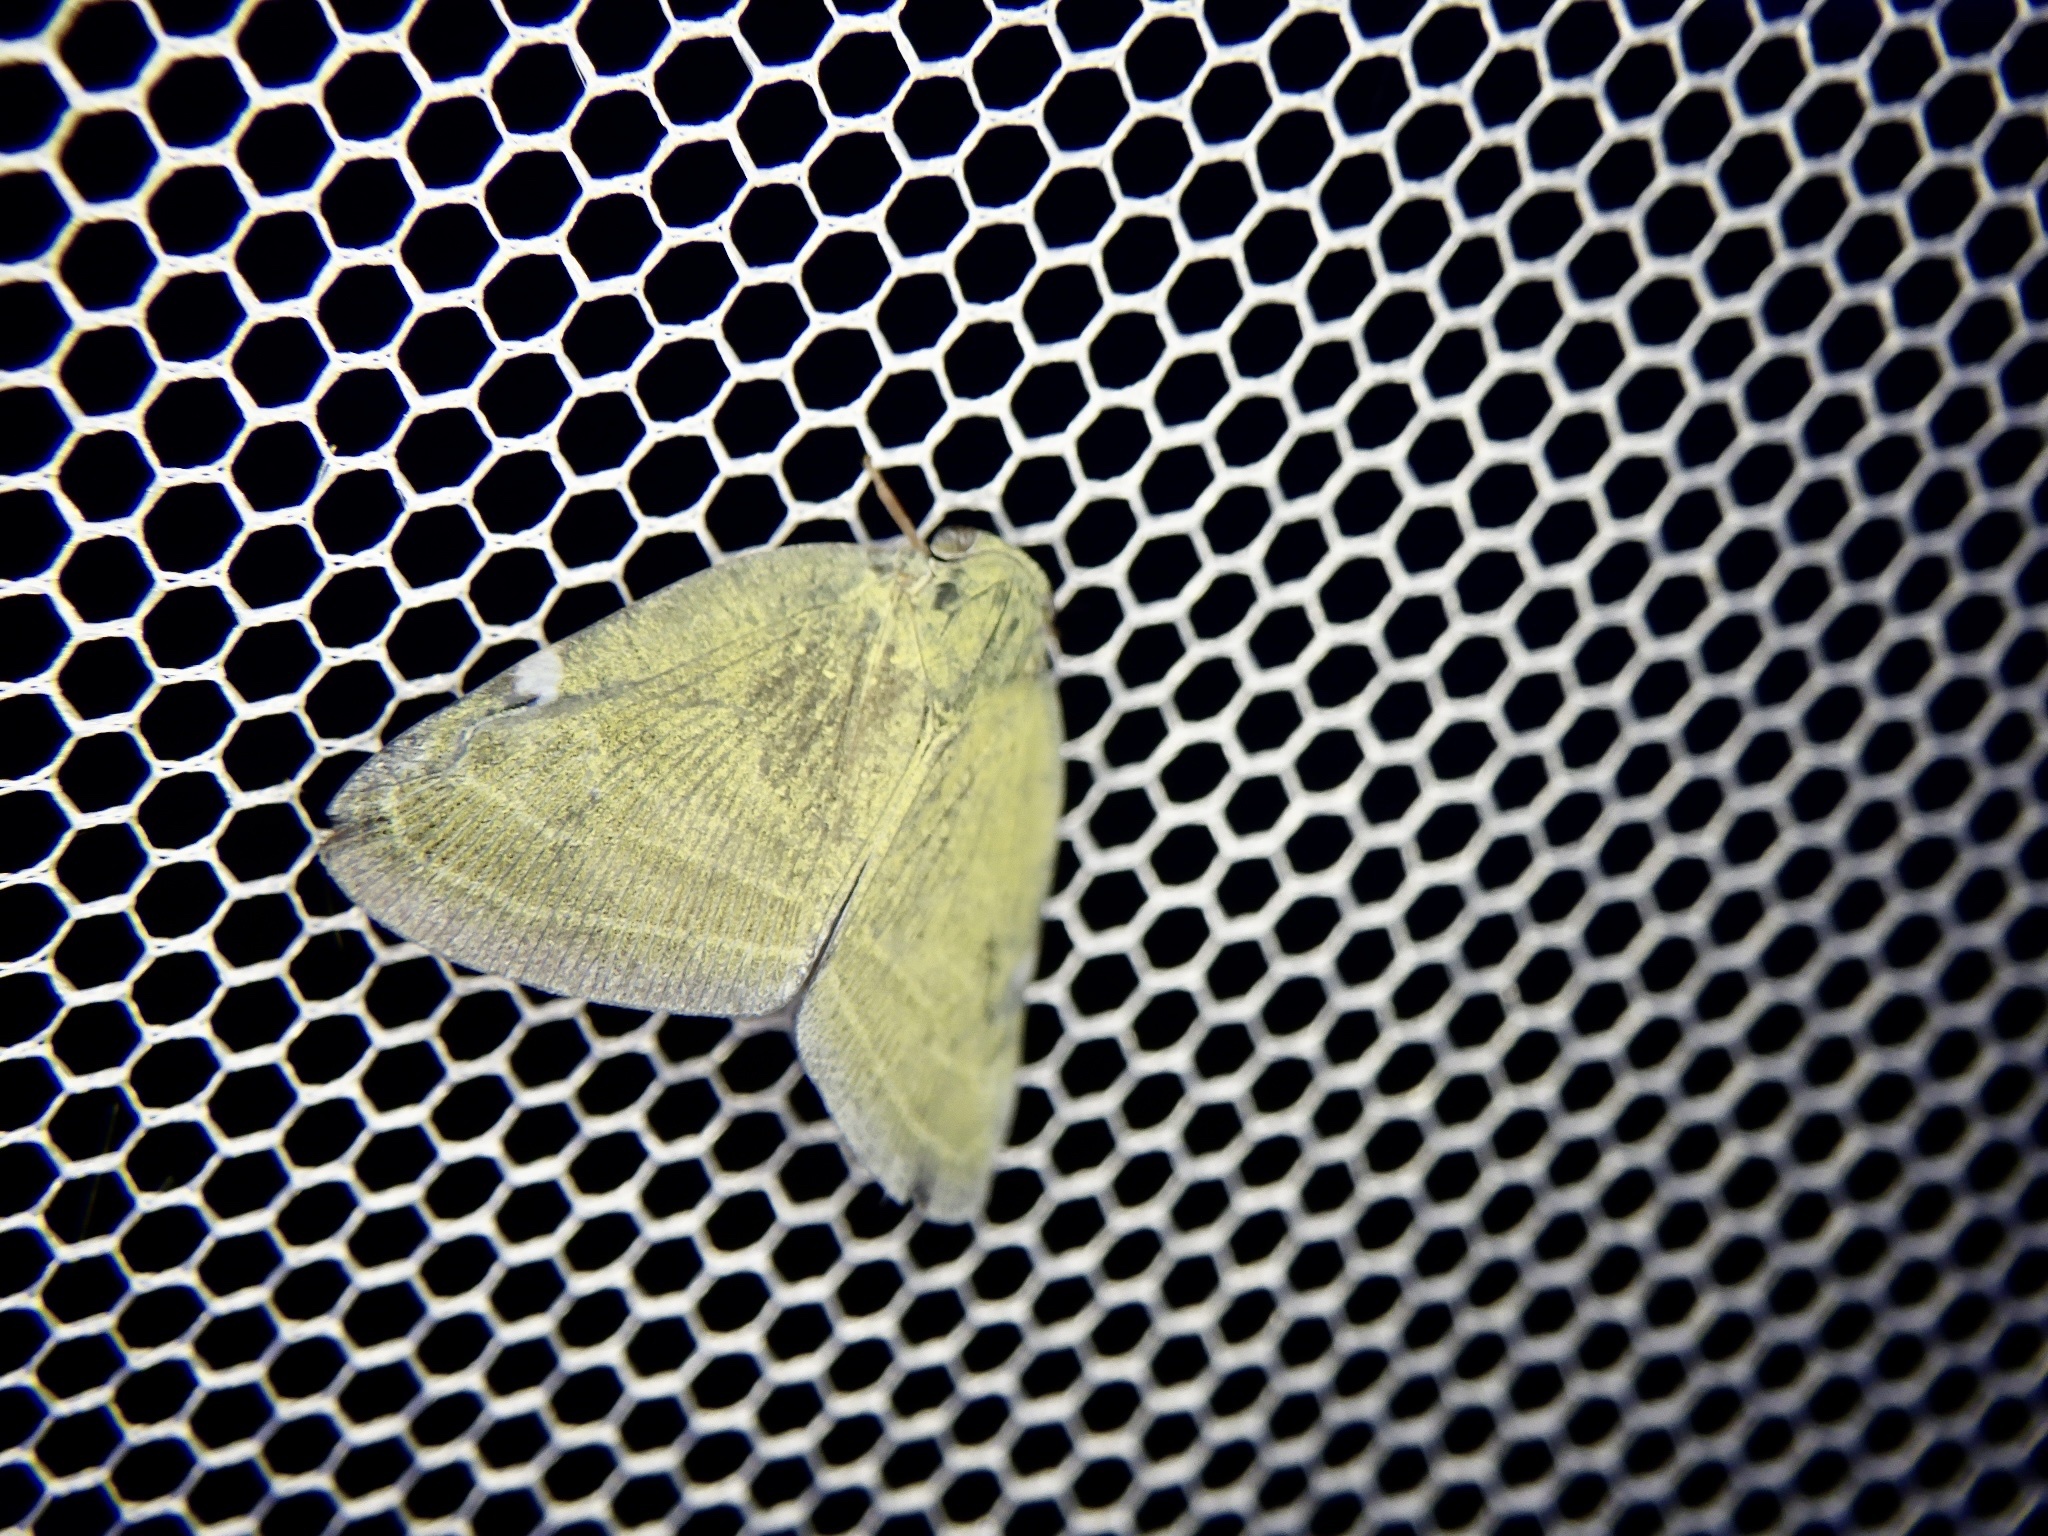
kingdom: Animalia
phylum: Arthropoda
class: Insecta
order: Hemiptera
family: Ricaniidae
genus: Pochazia
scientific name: Pochazia albomaculata
